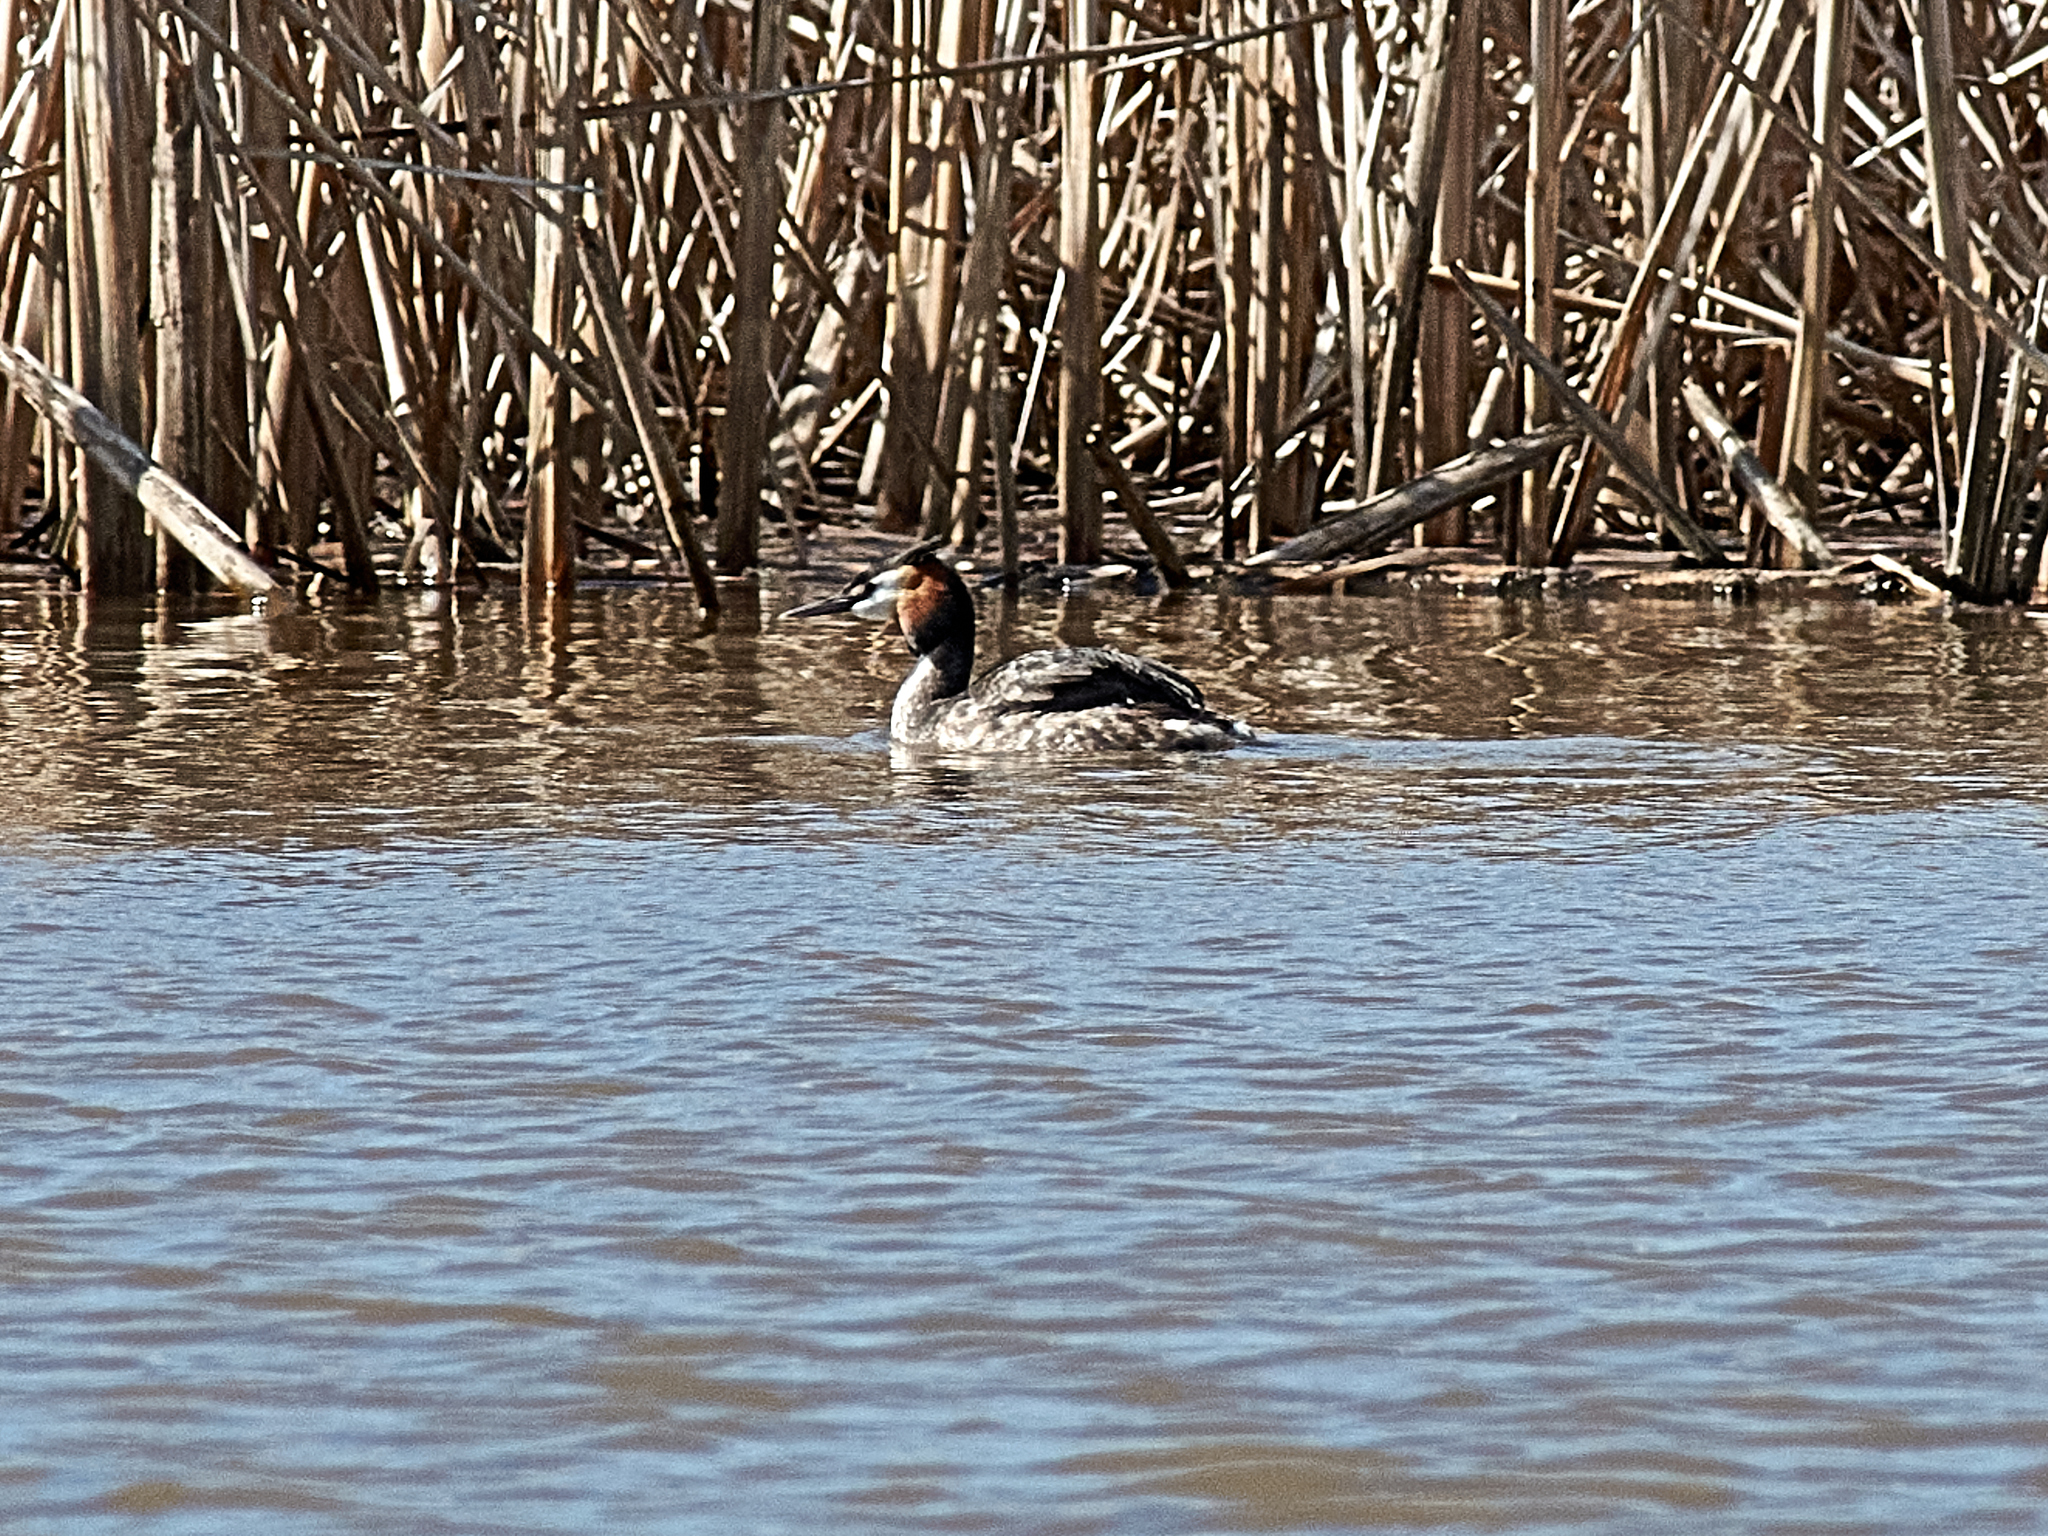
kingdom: Animalia
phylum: Chordata
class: Aves
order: Podicipediformes
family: Podicipedidae
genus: Podiceps
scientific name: Podiceps cristatus
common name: Great crested grebe
